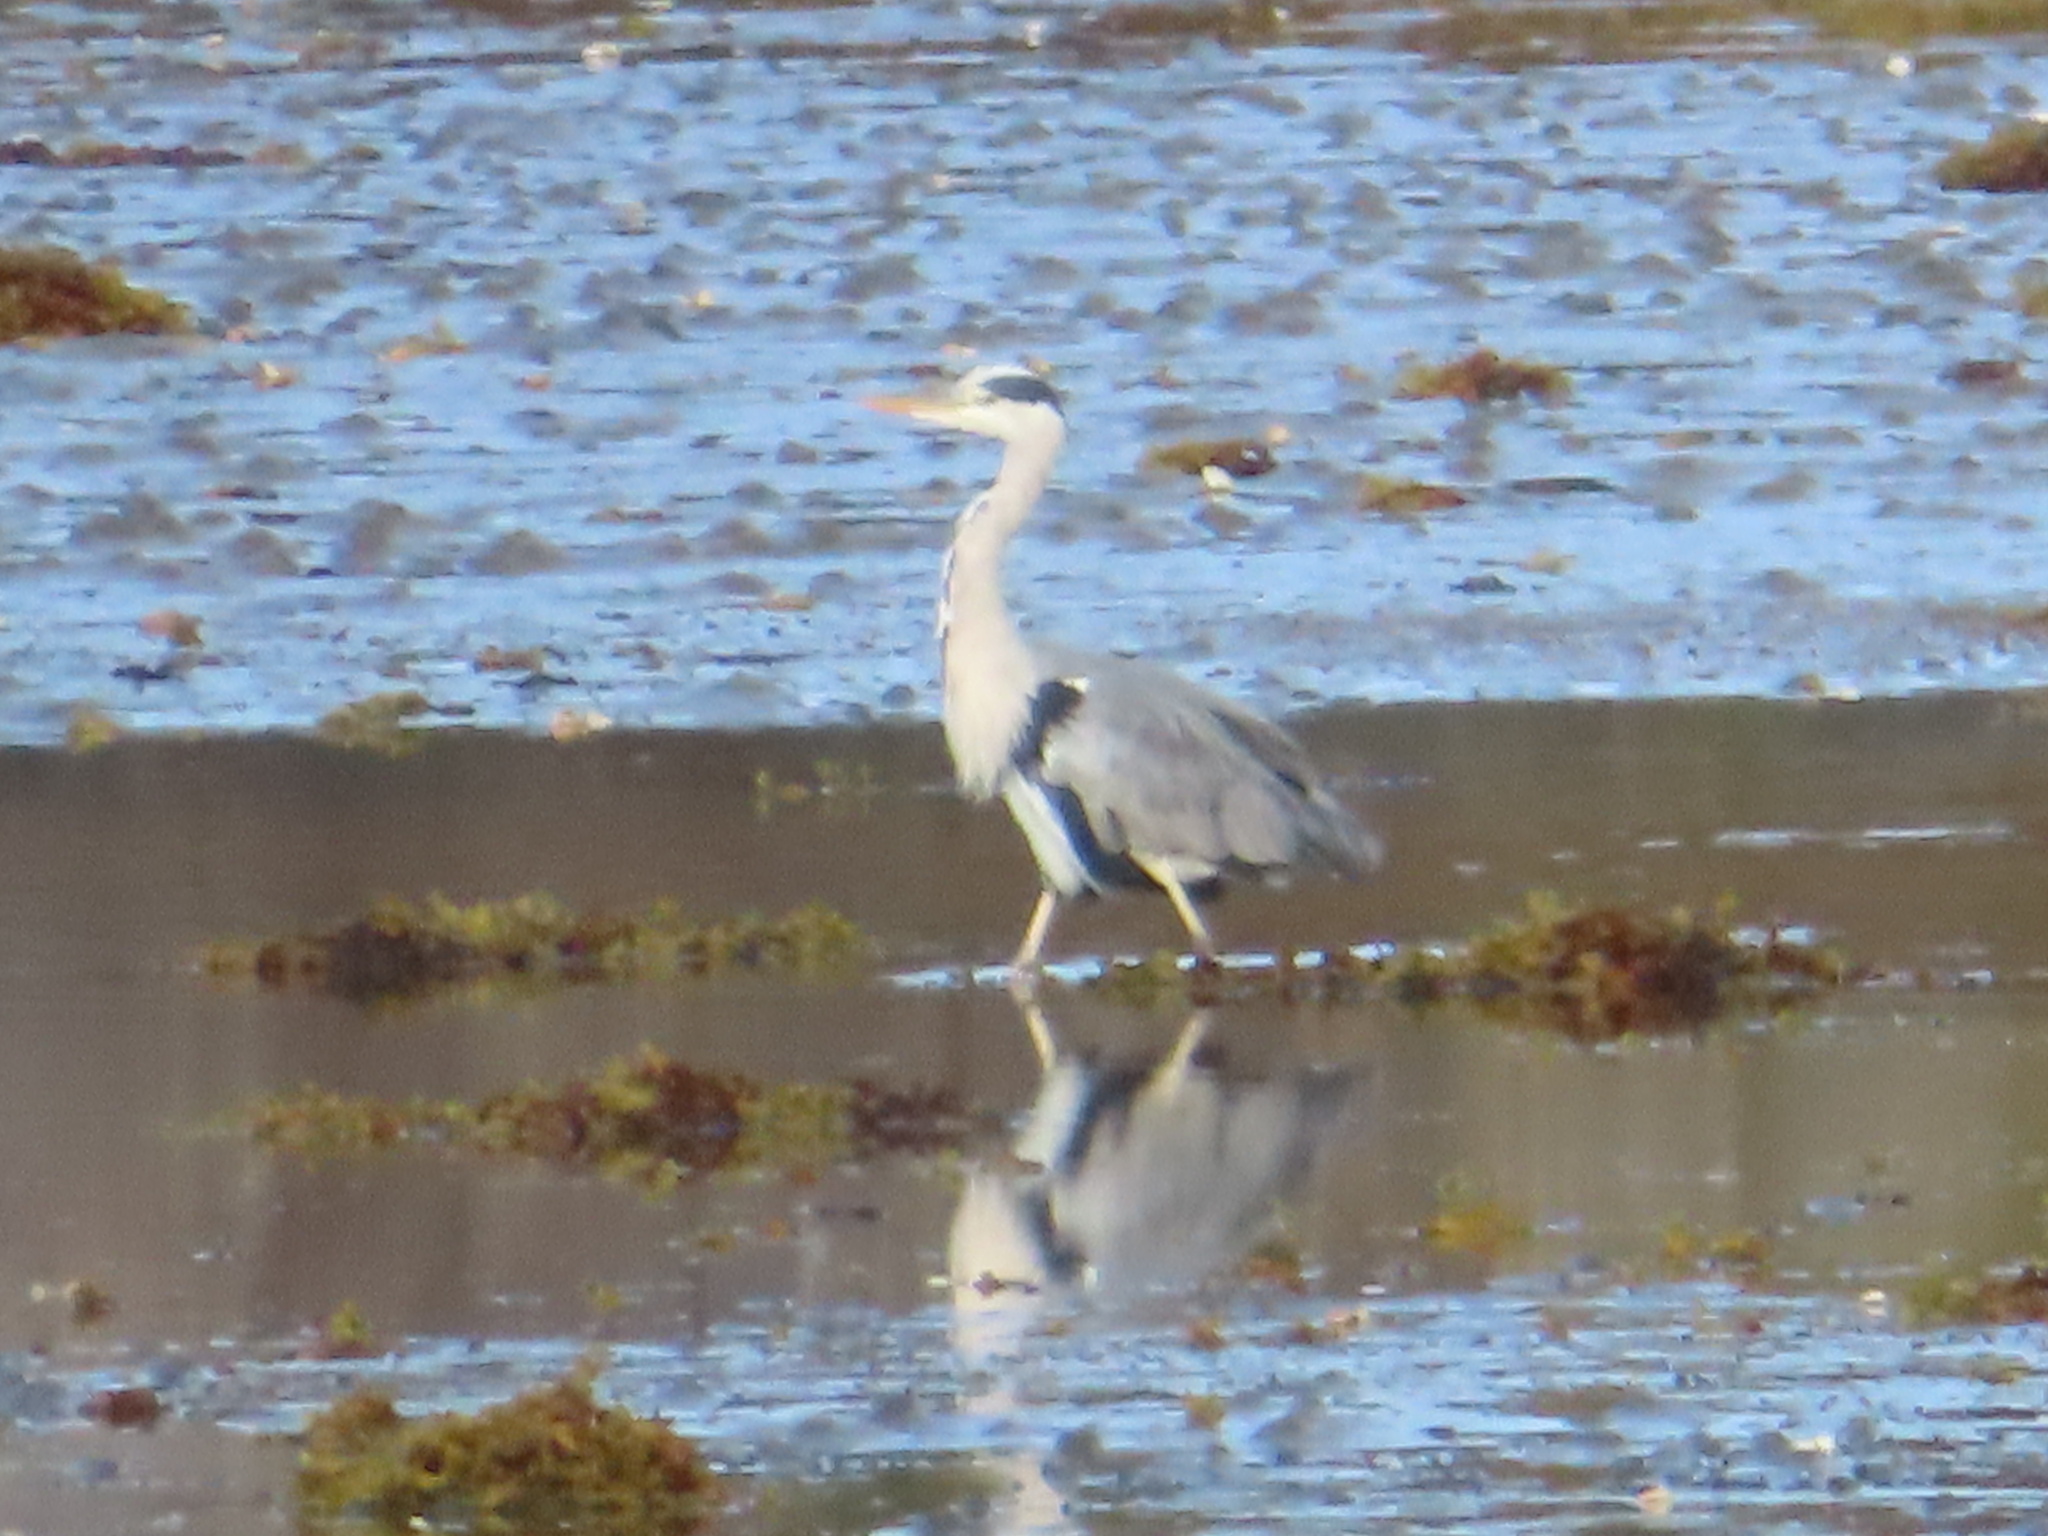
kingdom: Animalia
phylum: Chordata
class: Aves
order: Pelecaniformes
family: Ardeidae
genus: Ardea
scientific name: Ardea cinerea
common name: Grey heron
